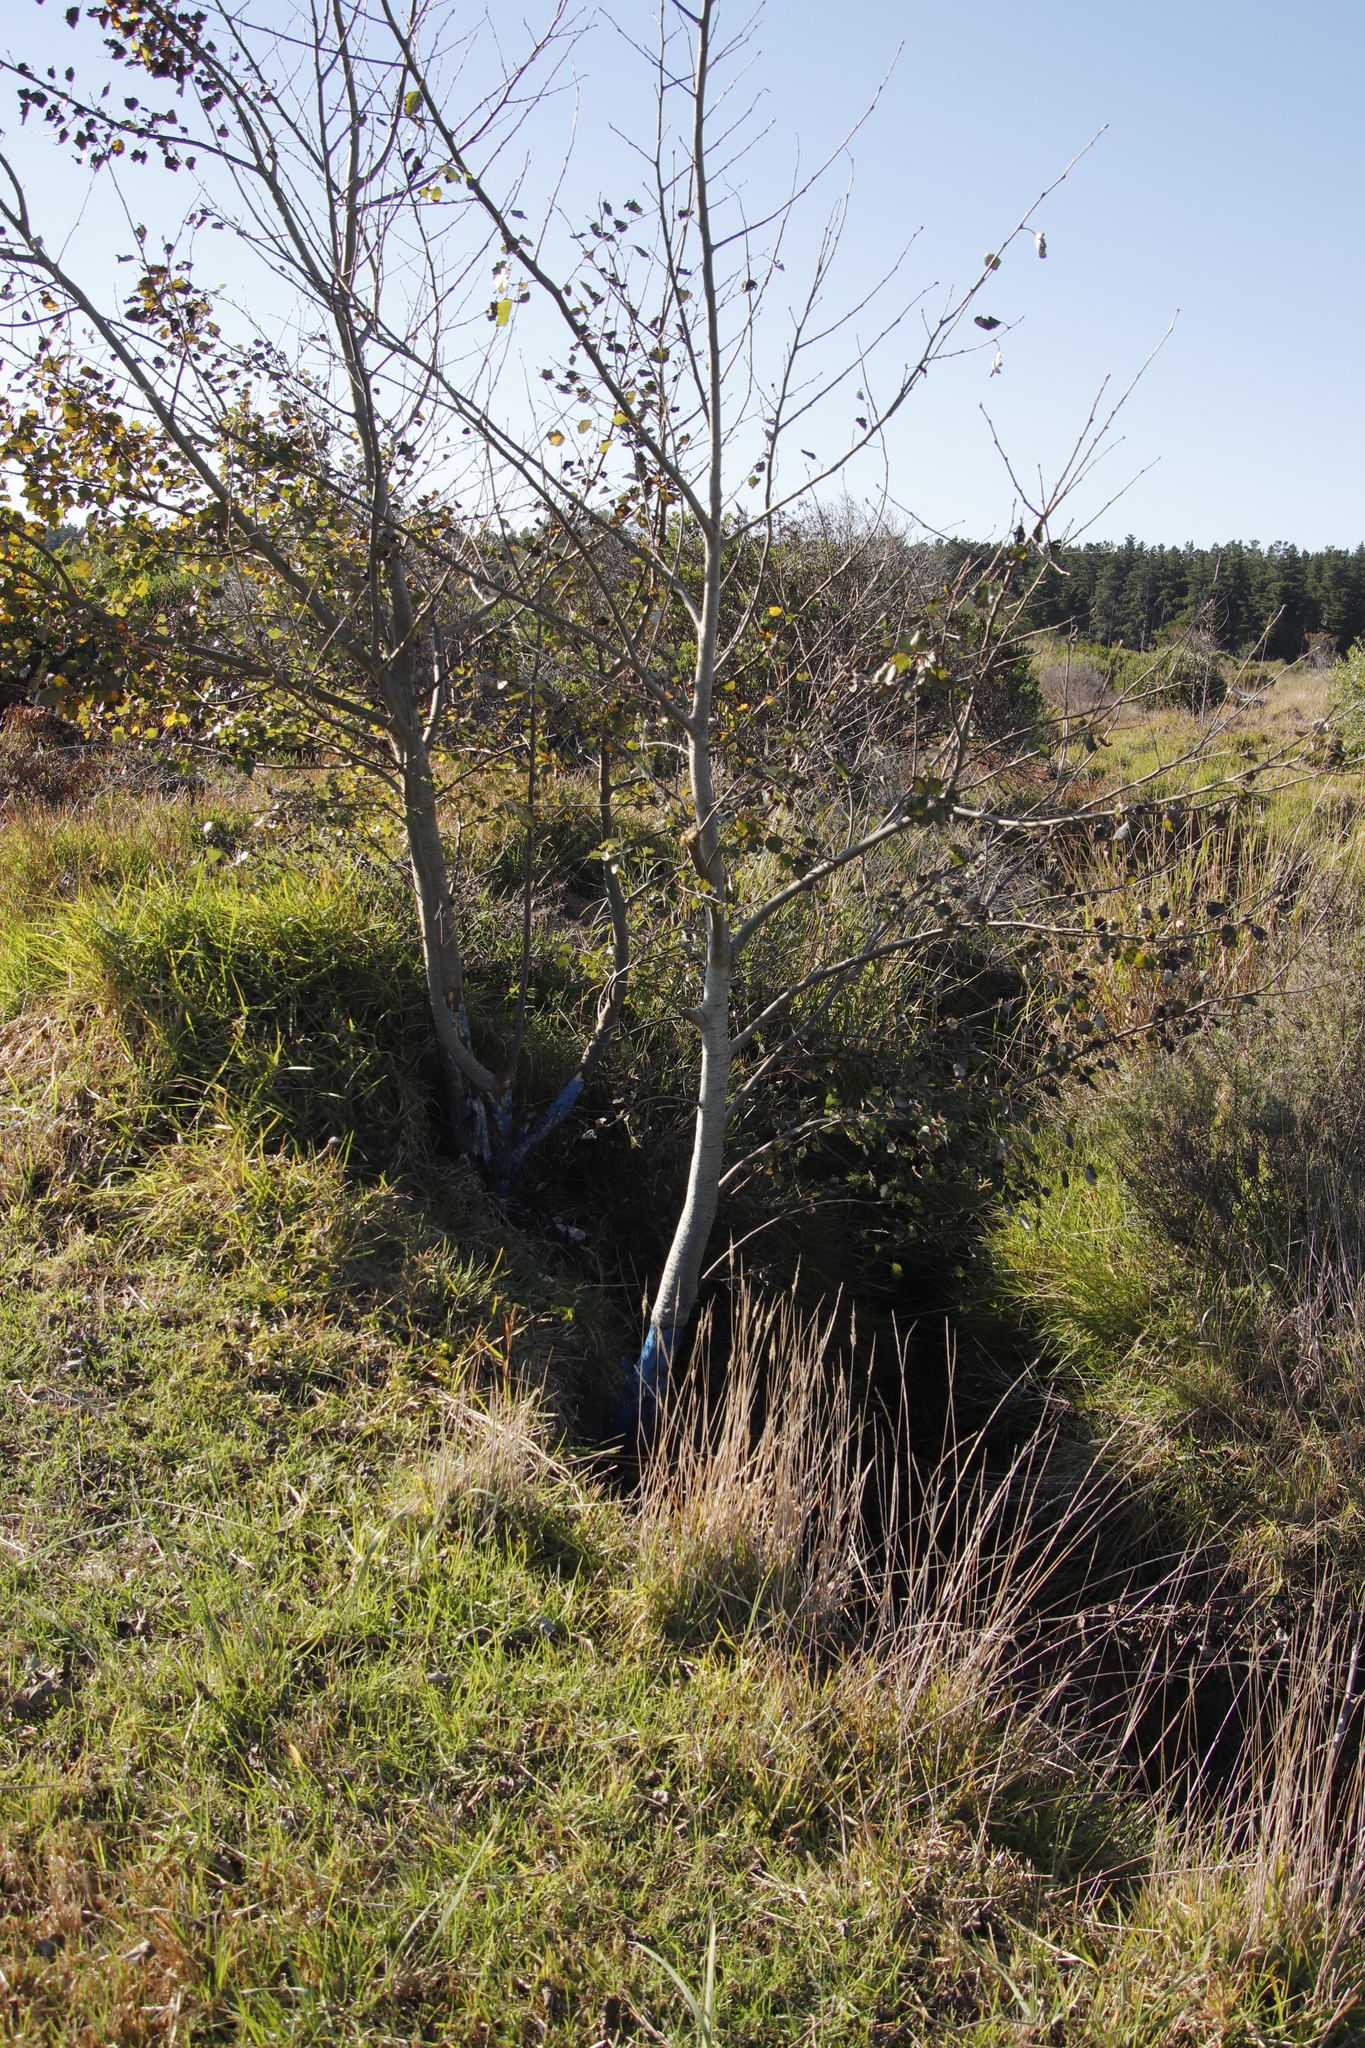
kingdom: Plantae
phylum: Tracheophyta
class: Magnoliopsida
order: Malpighiales
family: Salicaceae
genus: Populus
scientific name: Populus canescens
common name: Gray poplar
